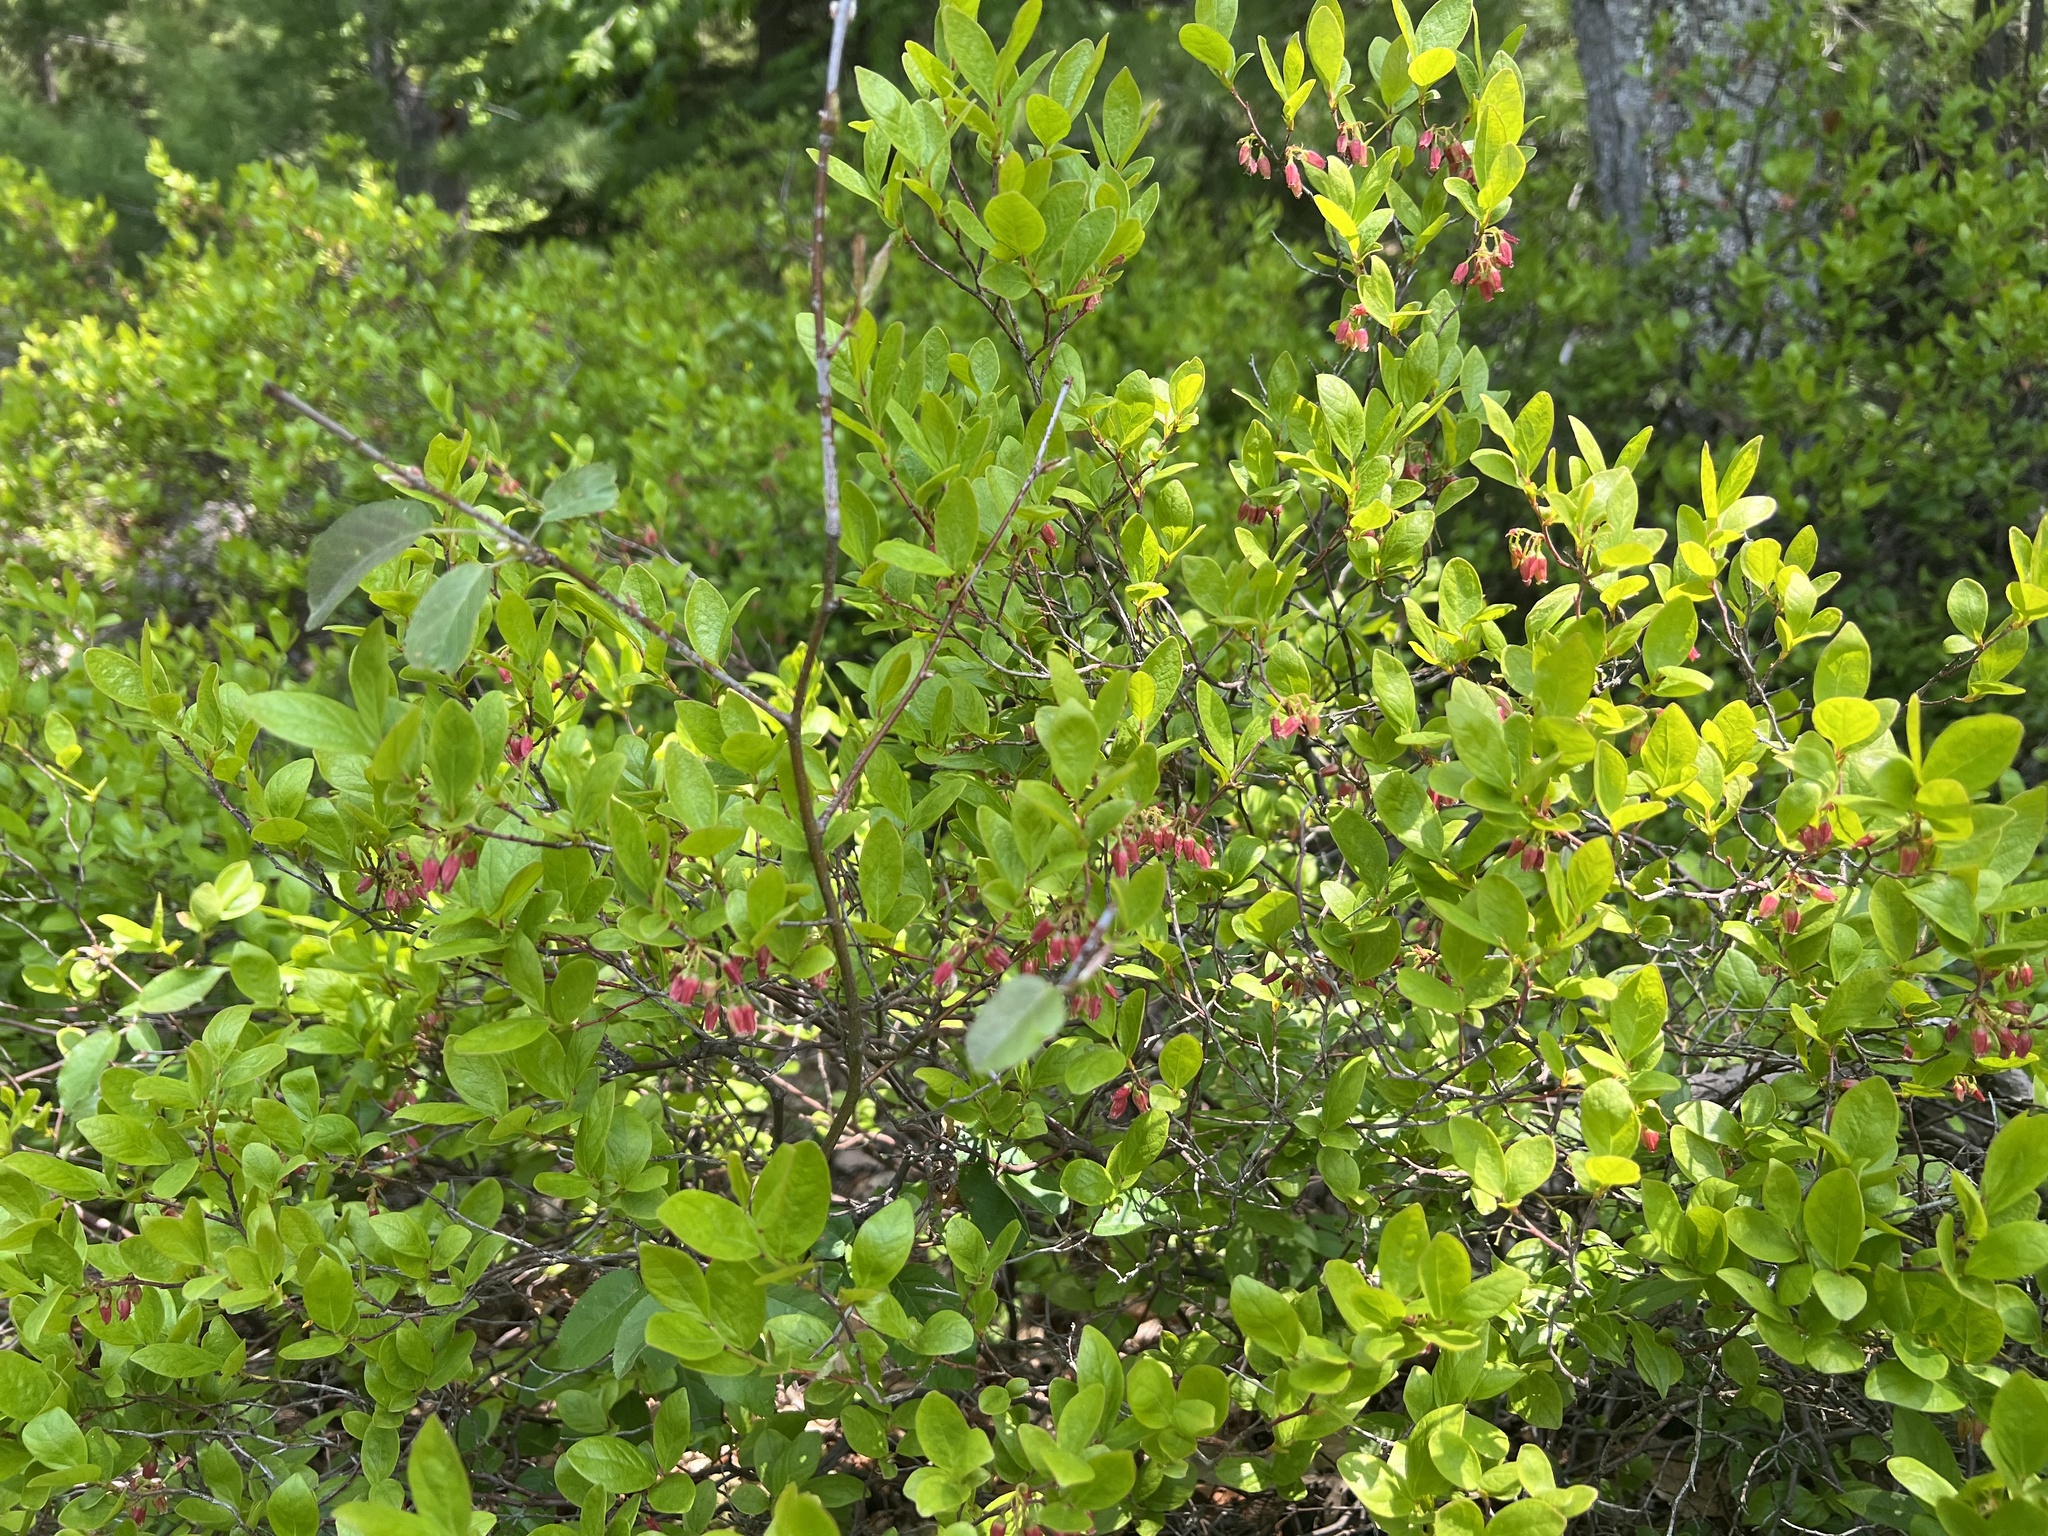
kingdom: Plantae
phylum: Tracheophyta
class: Magnoliopsida
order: Ericales
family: Ericaceae
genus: Gaylussacia
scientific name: Gaylussacia baccata
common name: Black huckleberry
